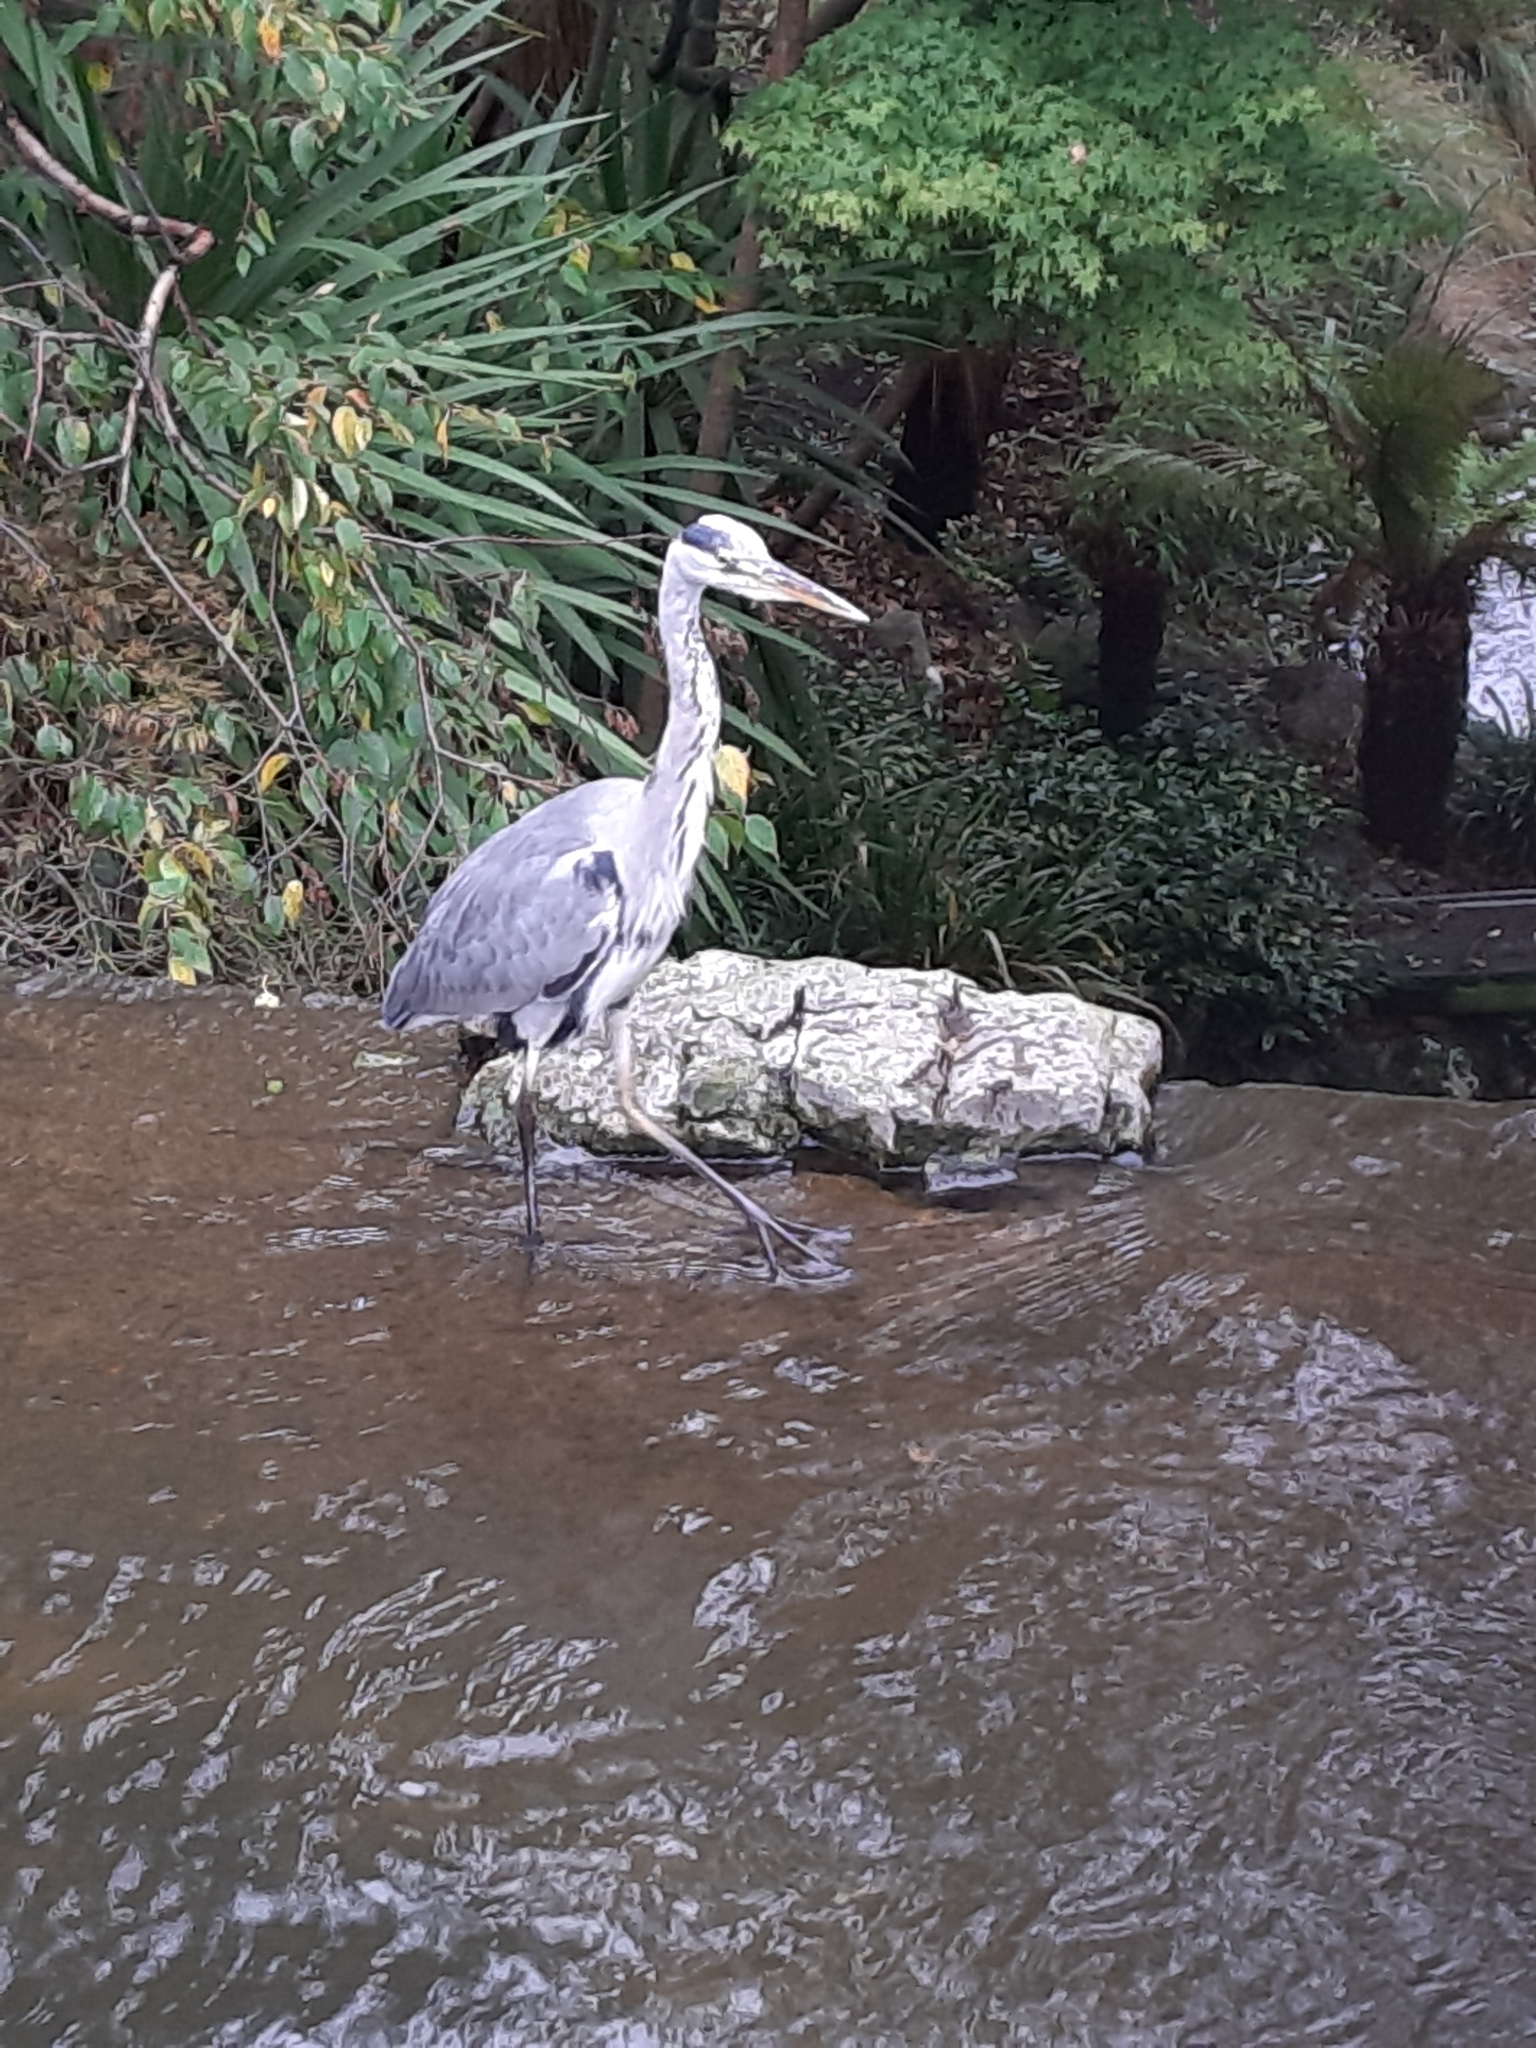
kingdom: Animalia
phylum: Chordata
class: Aves
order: Pelecaniformes
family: Ardeidae
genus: Ardea
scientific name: Ardea cinerea
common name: Grey heron
